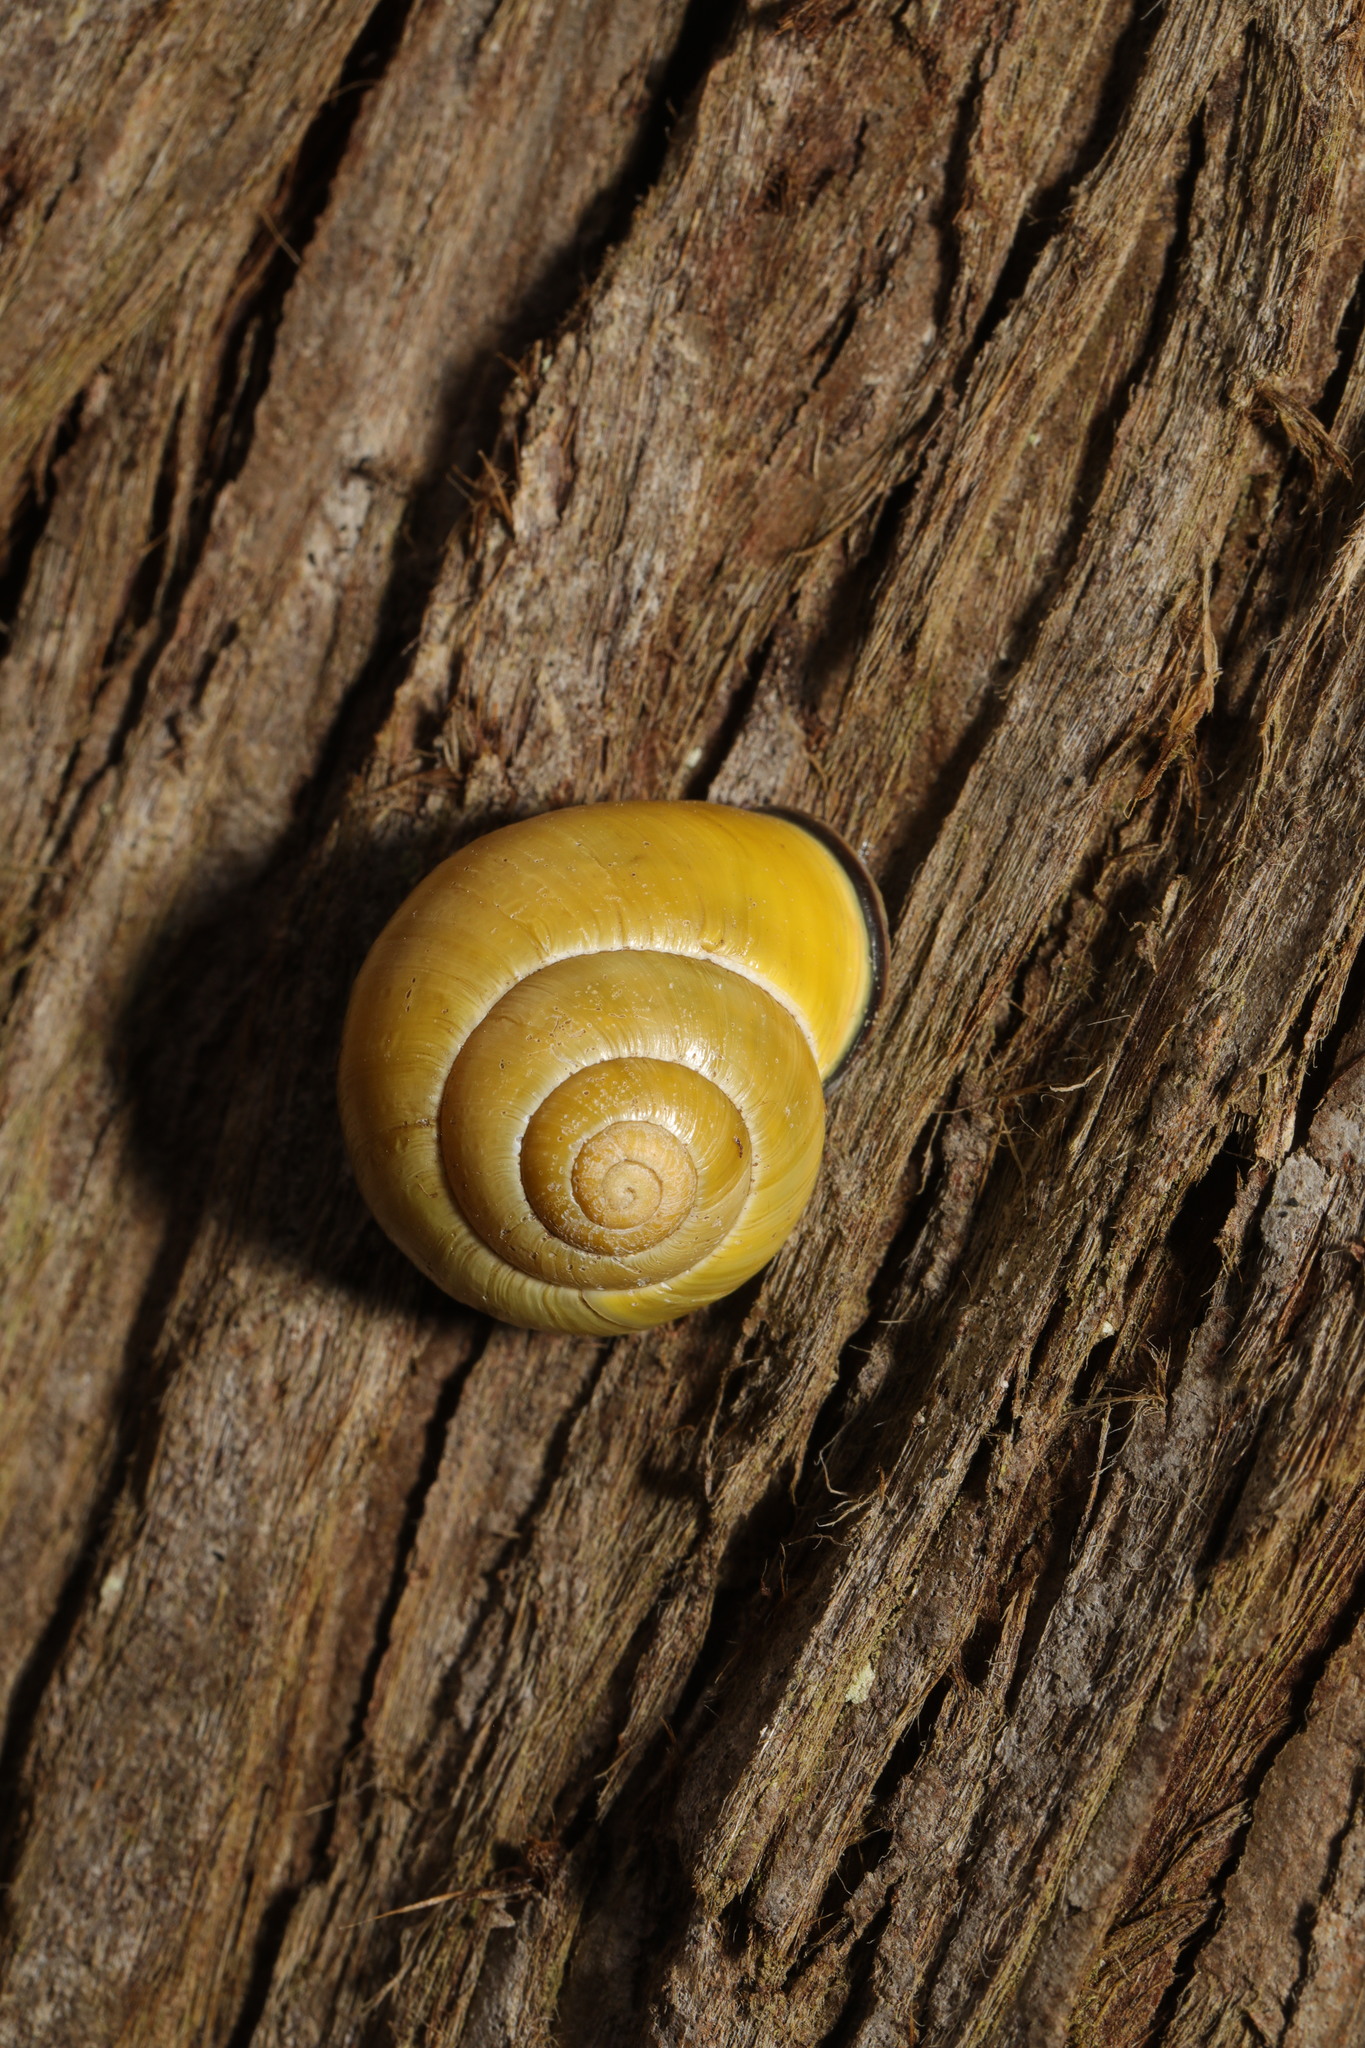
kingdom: Animalia
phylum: Mollusca
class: Gastropoda
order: Stylommatophora
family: Helicidae
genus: Cepaea
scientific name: Cepaea nemoralis
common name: Grovesnail
